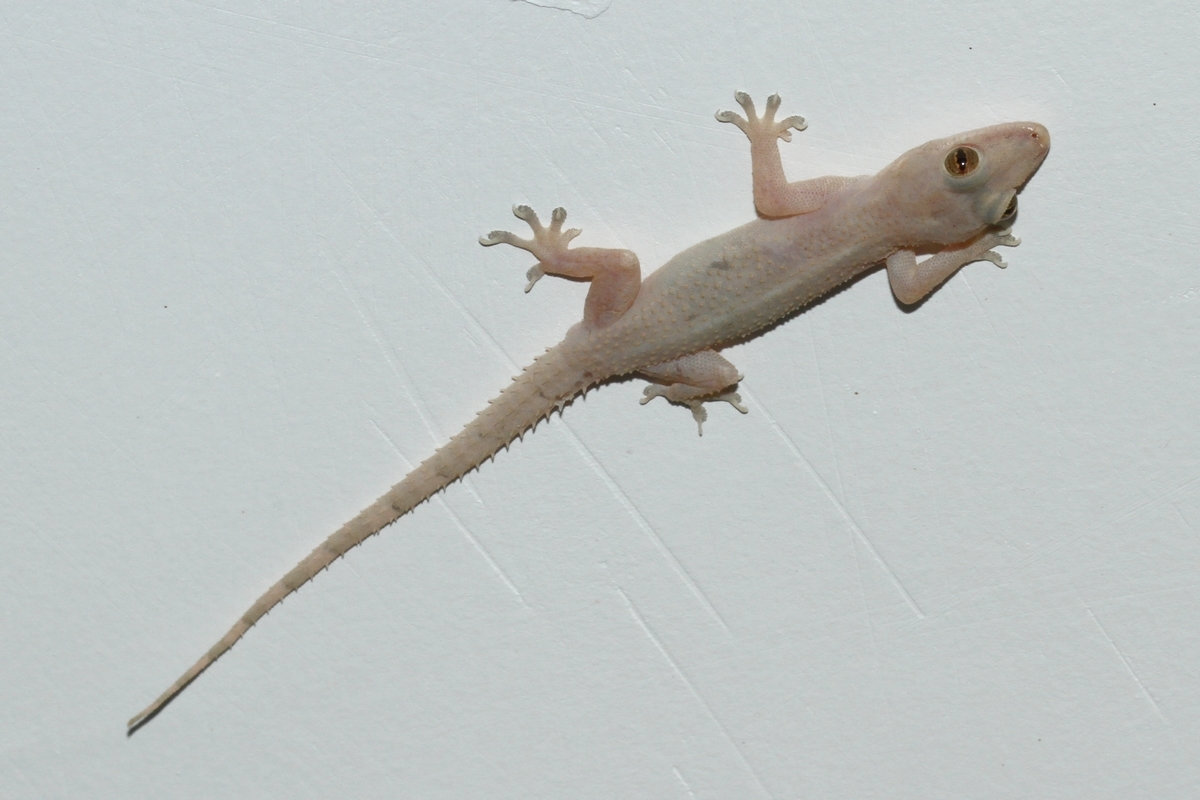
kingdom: Animalia
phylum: Chordata
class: Squamata
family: Gekkonidae
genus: Hemidactylus
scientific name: Hemidactylus mabouia
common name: House gecko
